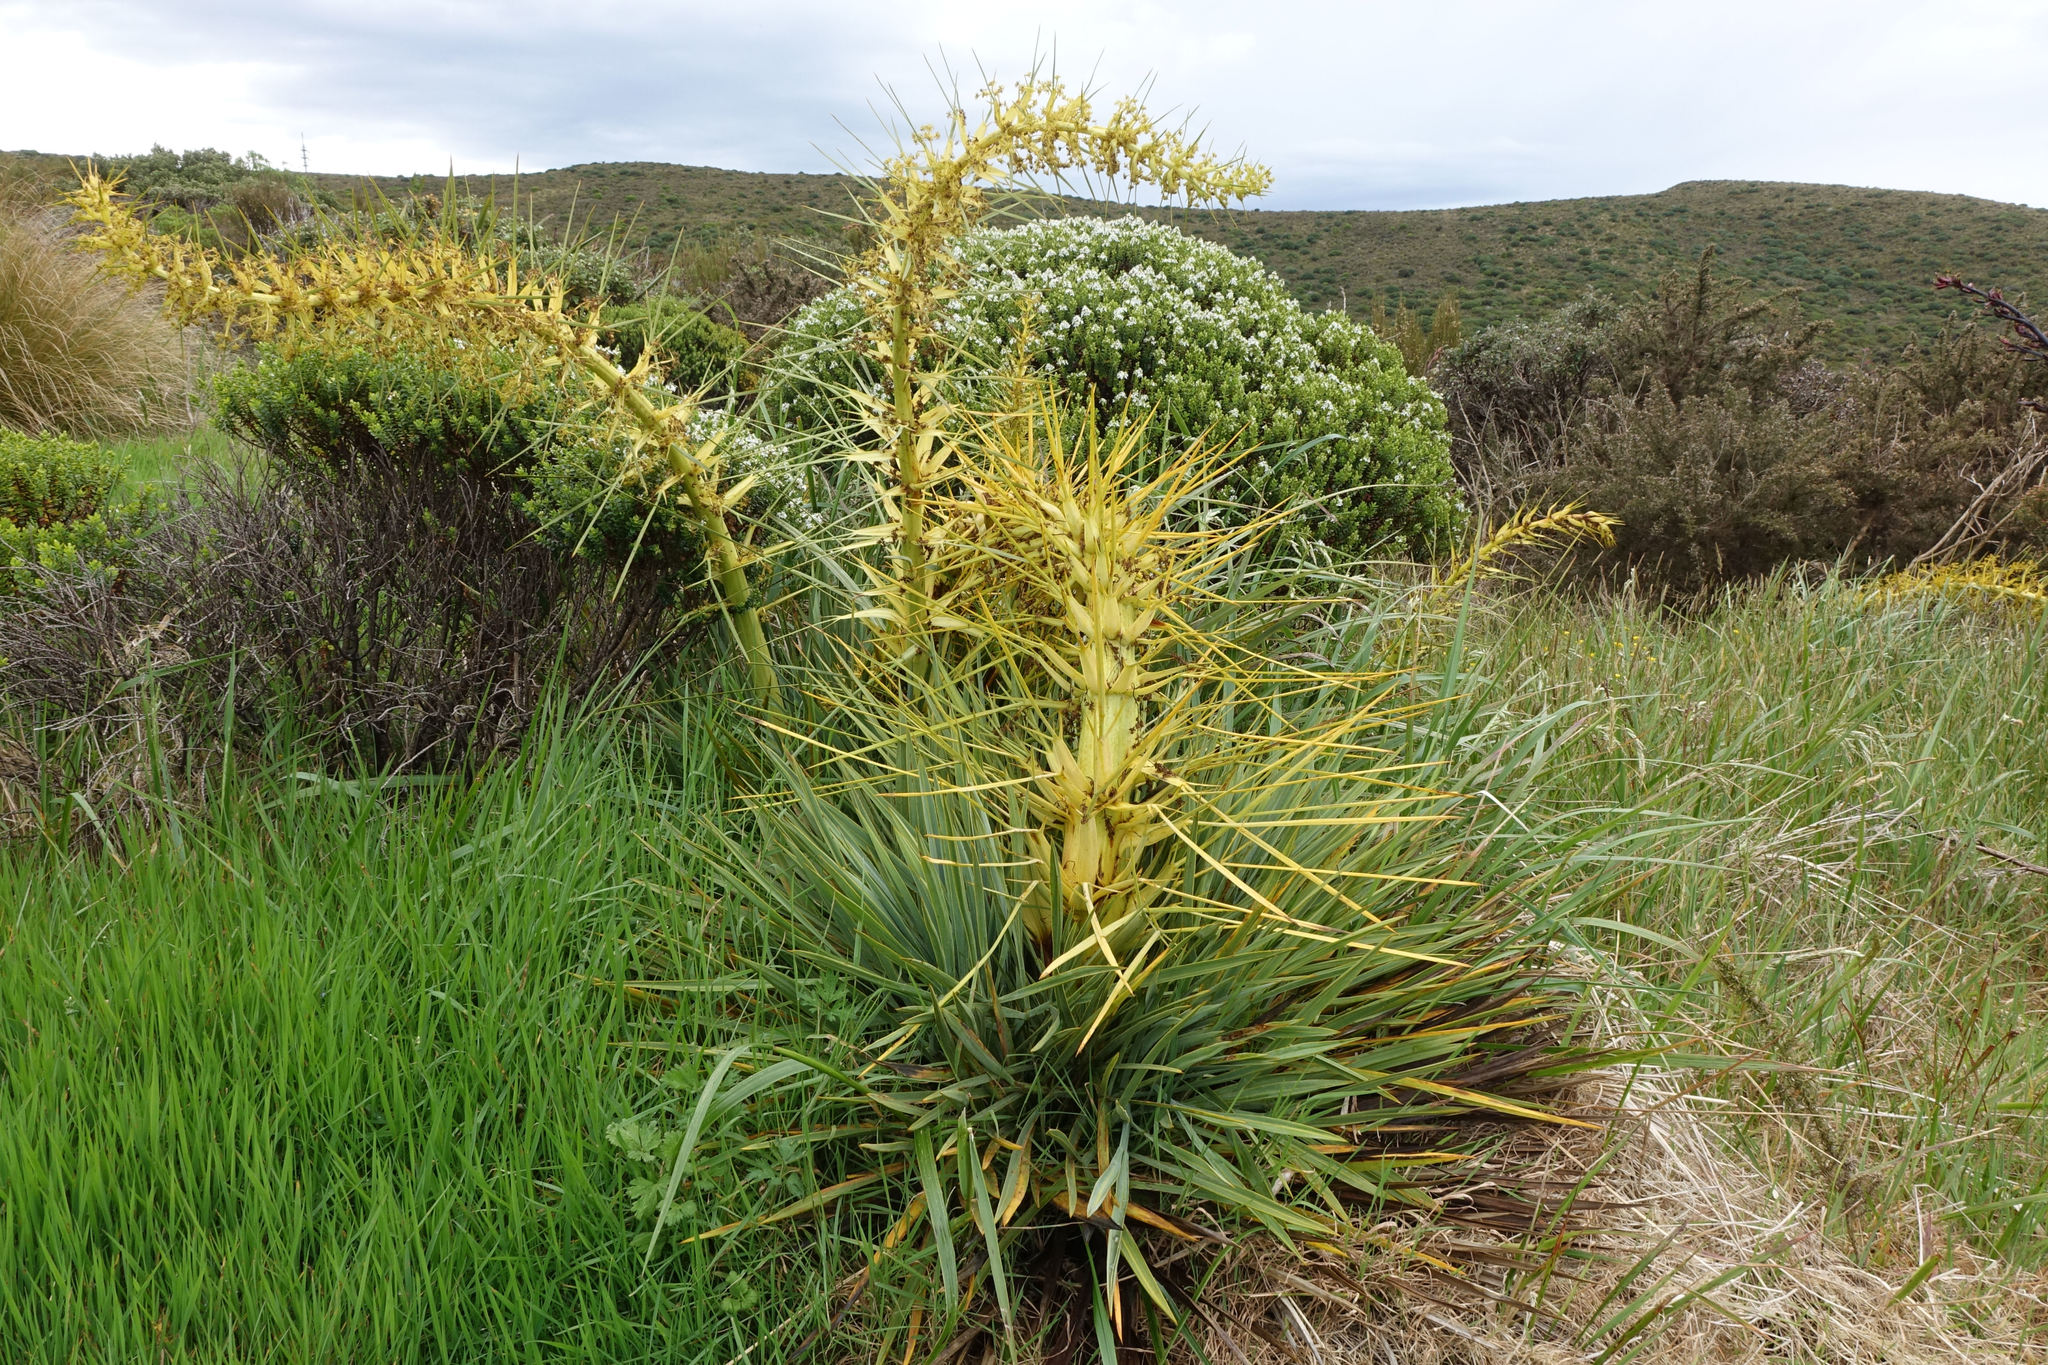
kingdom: Plantae
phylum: Tracheophyta
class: Magnoliopsida
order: Apiales
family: Apiaceae
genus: Aciphylla
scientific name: Aciphylla scott-thomsonii
